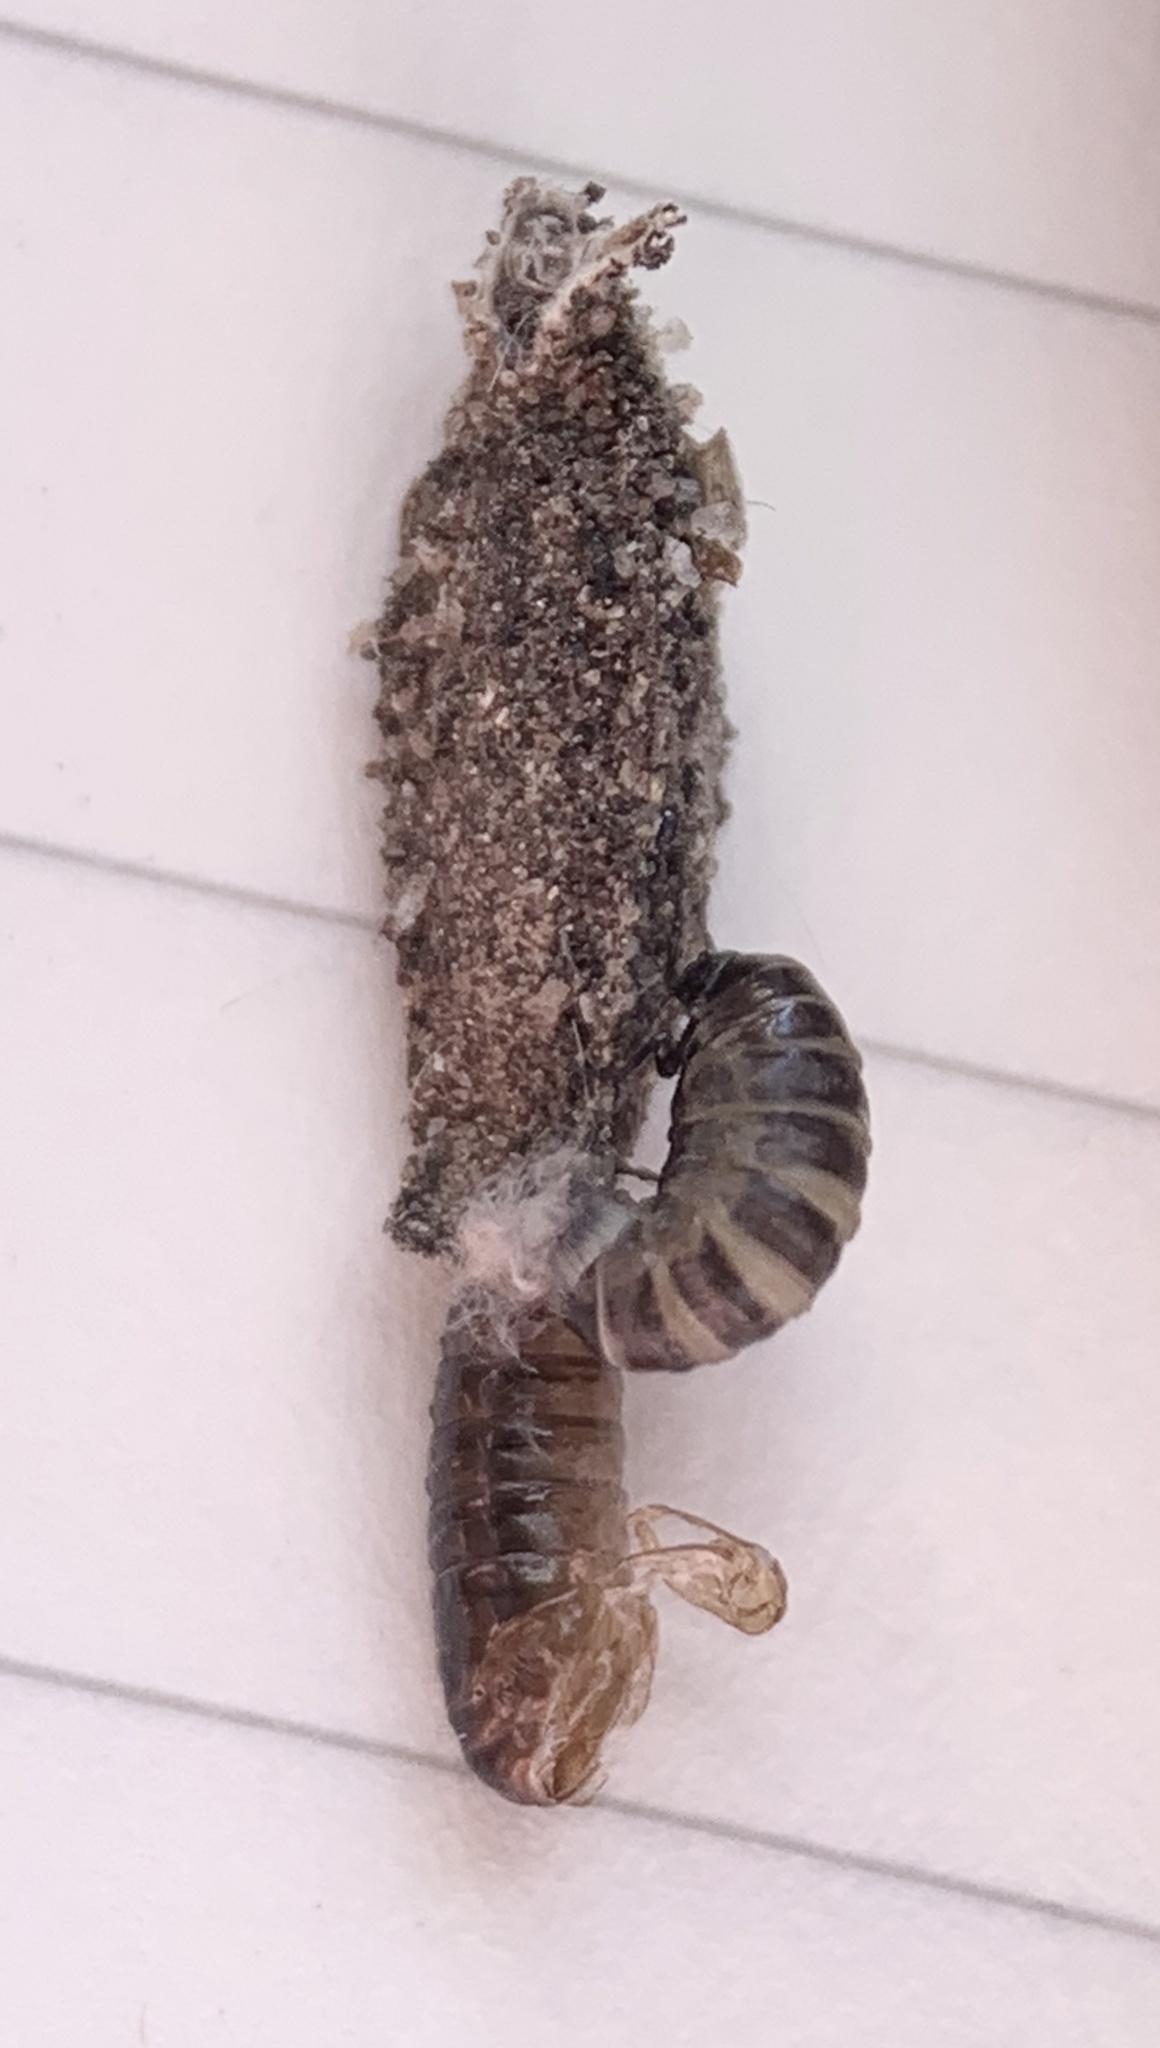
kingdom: Animalia
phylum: Arthropoda
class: Insecta
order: Lepidoptera
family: Psychidae
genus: Dahlica
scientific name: Dahlica triquetrella
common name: Narrow lichen case-bearer
